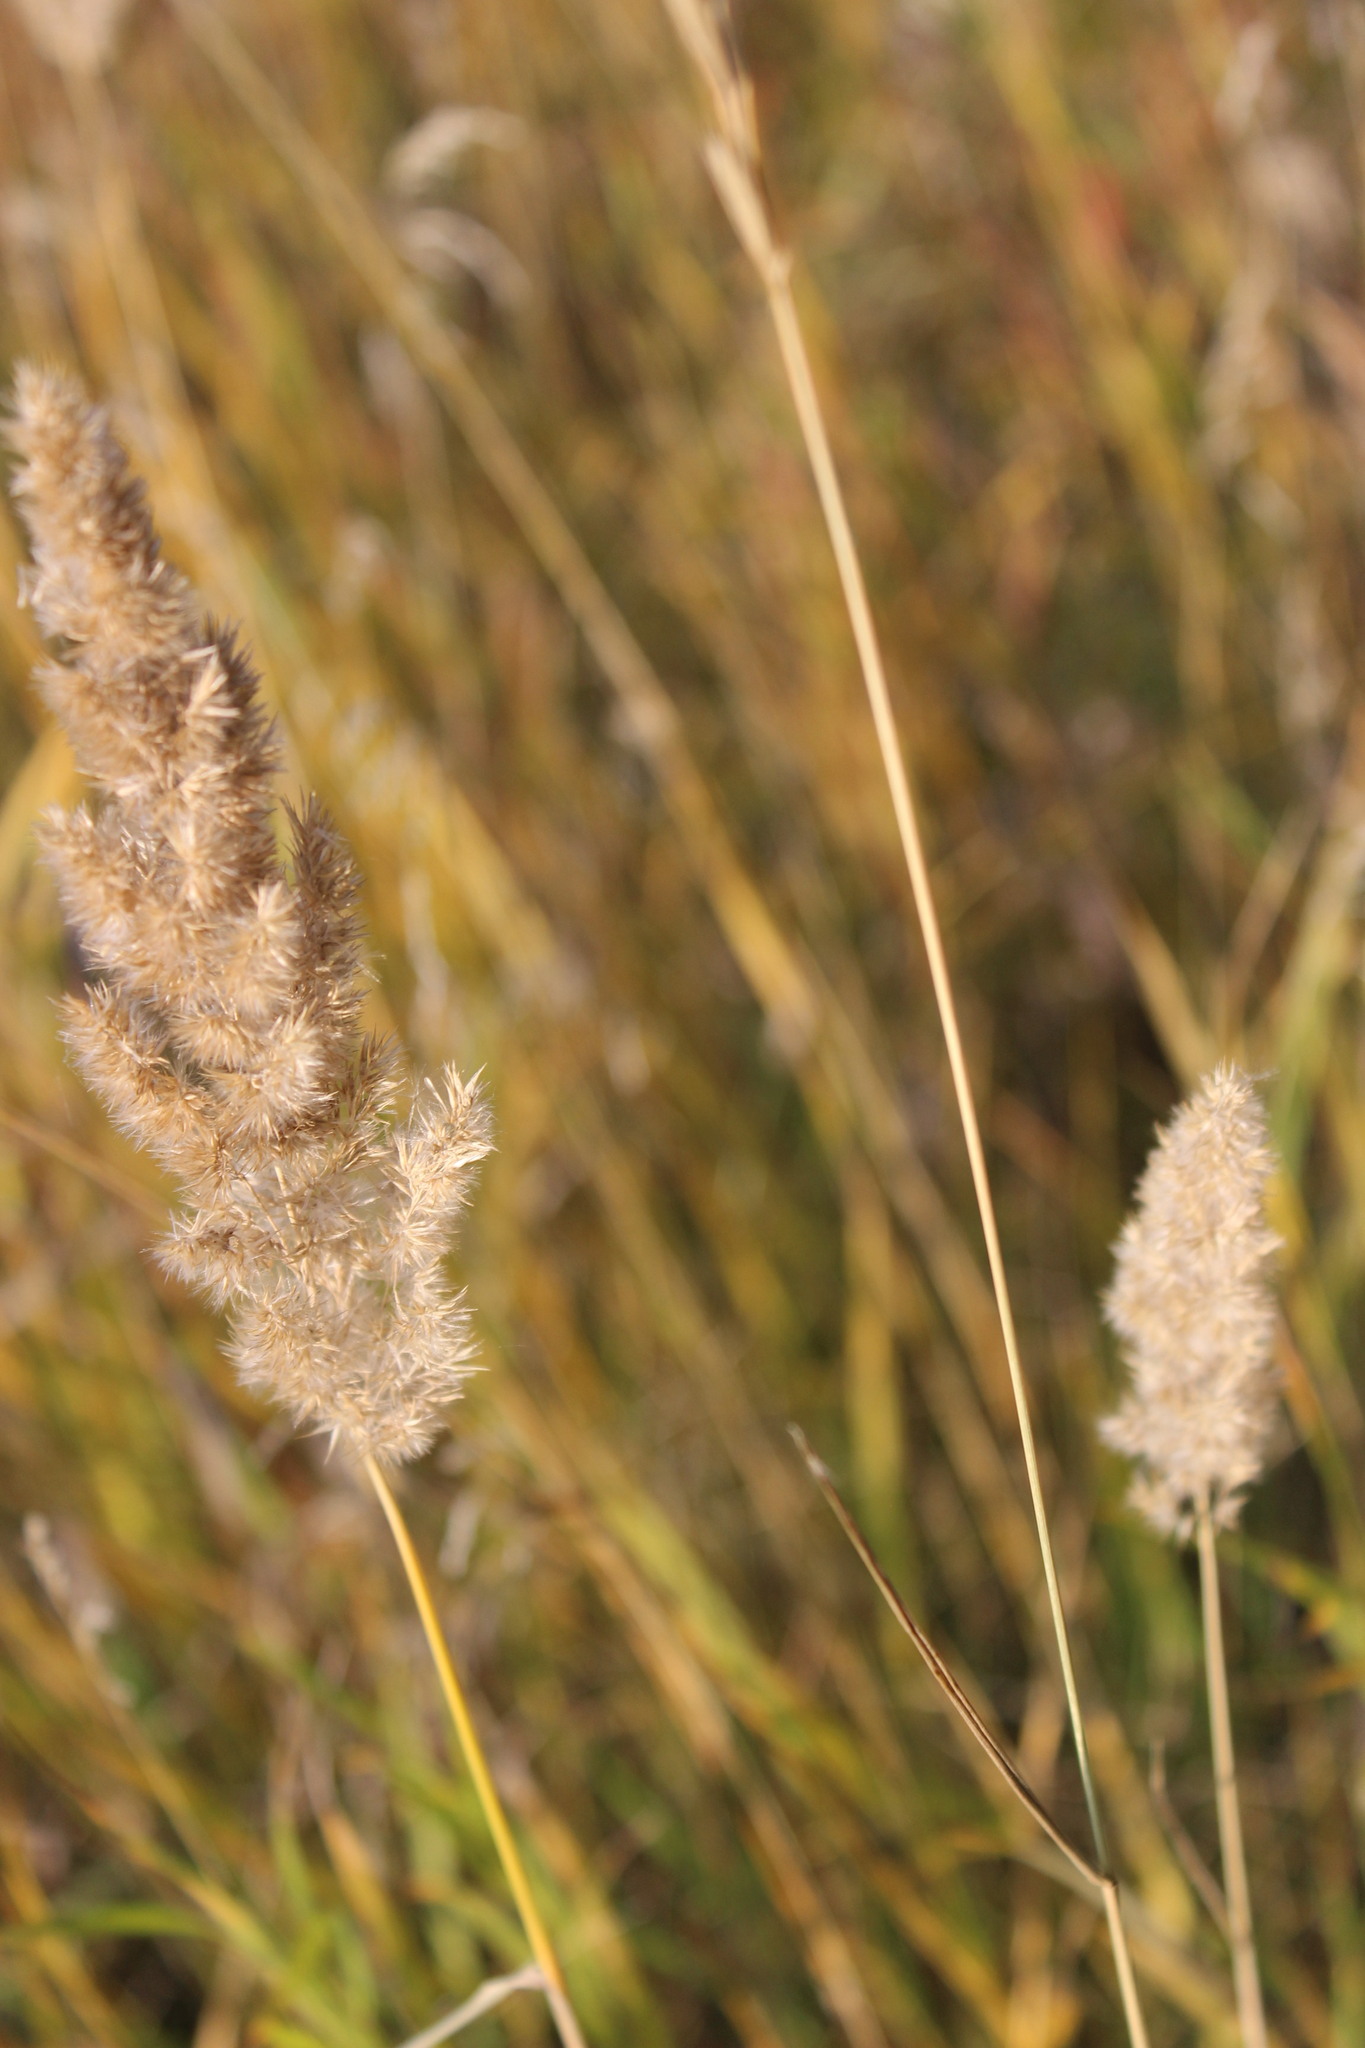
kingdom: Plantae
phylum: Tracheophyta
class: Liliopsida
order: Poales
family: Poaceae
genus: Calamagrostis
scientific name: Calamagrostis epigejos
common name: Wood small-reed
